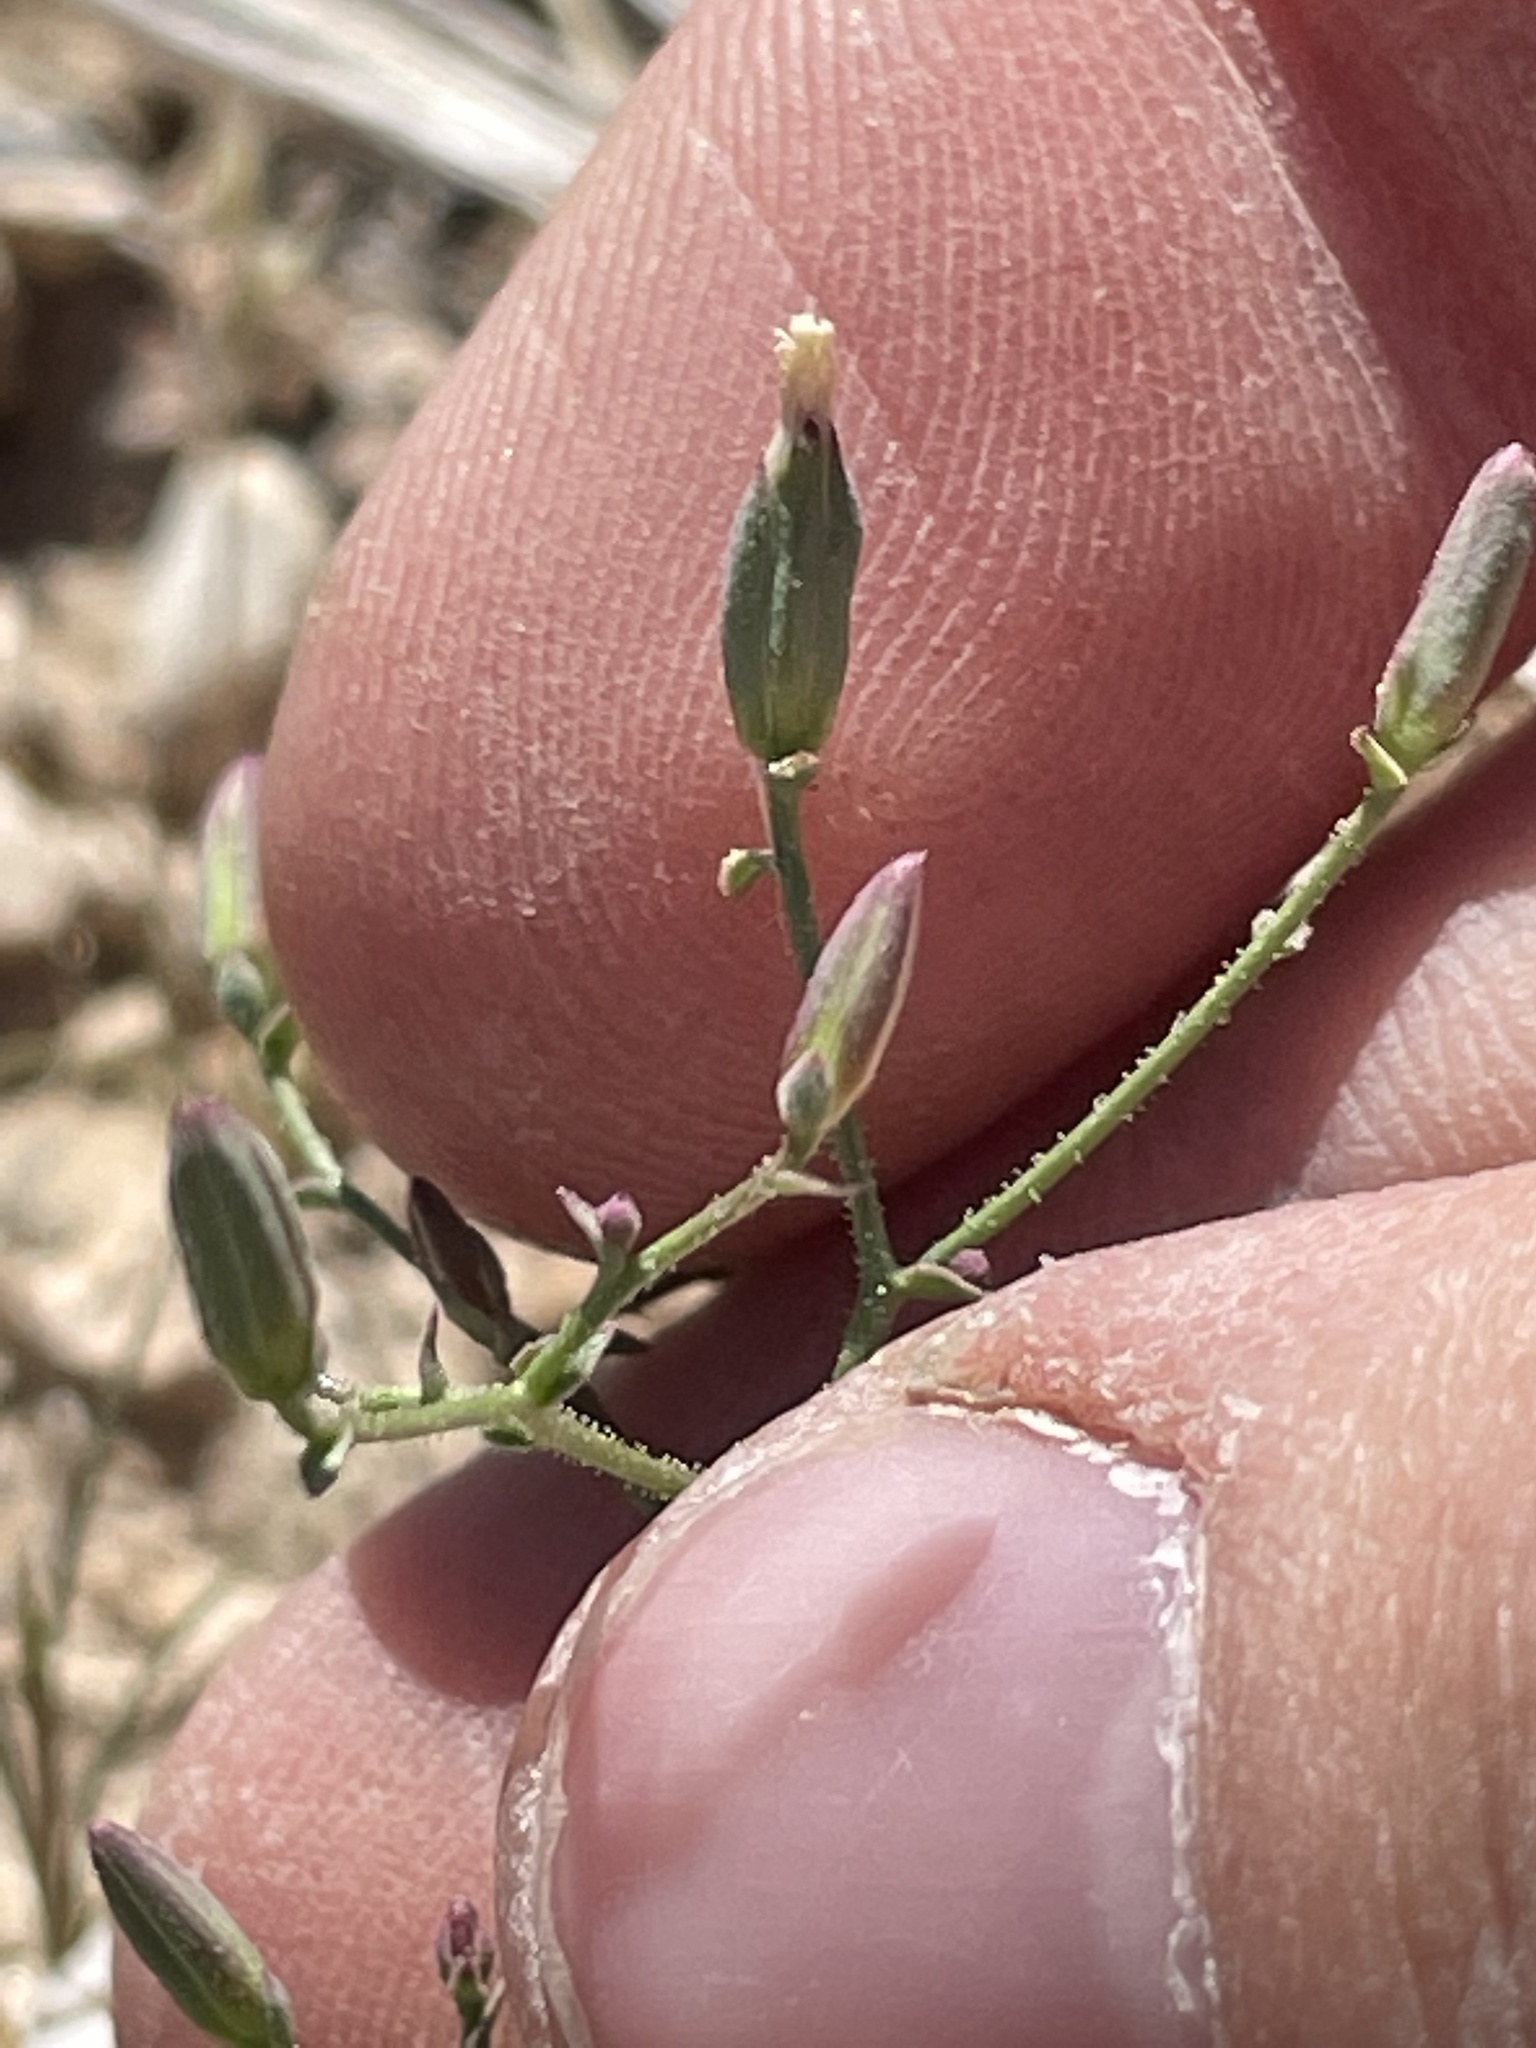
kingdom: Plantae
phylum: Tracheophyta
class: Magnoliopsida
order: Asterales
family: Asteraceae
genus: Lygodesmia
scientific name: Lygodesmia exigua
